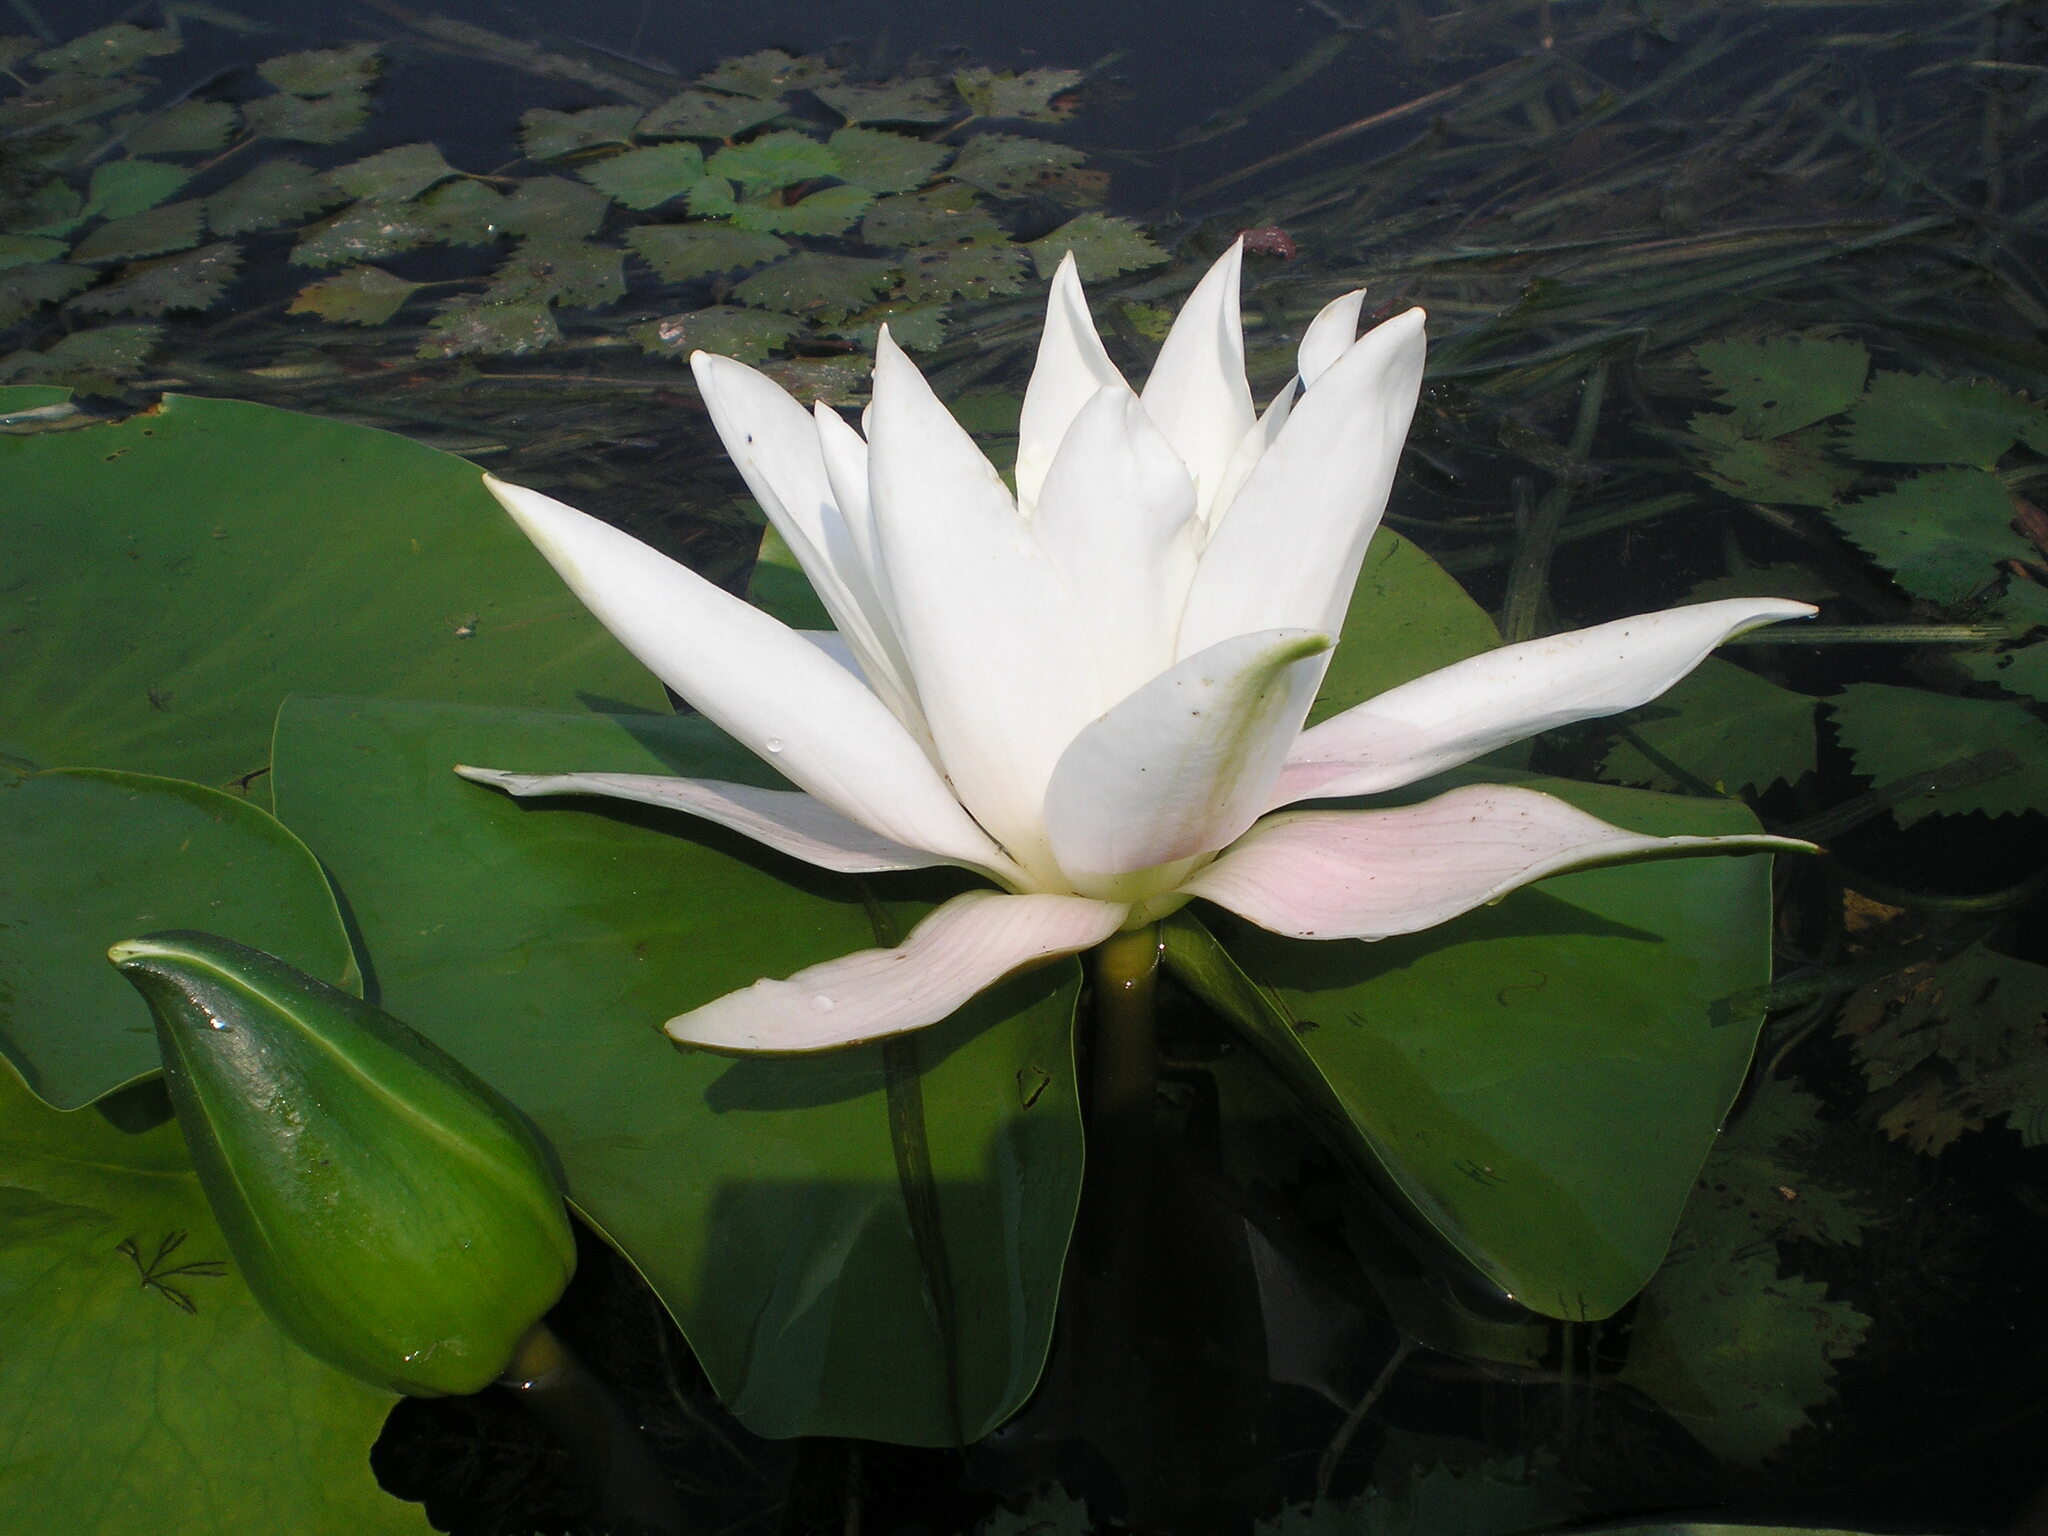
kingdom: Plantae
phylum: Tracheophyta
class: Magnoliopsida
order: Nymphaeales
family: Nymphaeaceae
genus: Nymphaea
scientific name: Nymphaea alba
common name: White water-lily
